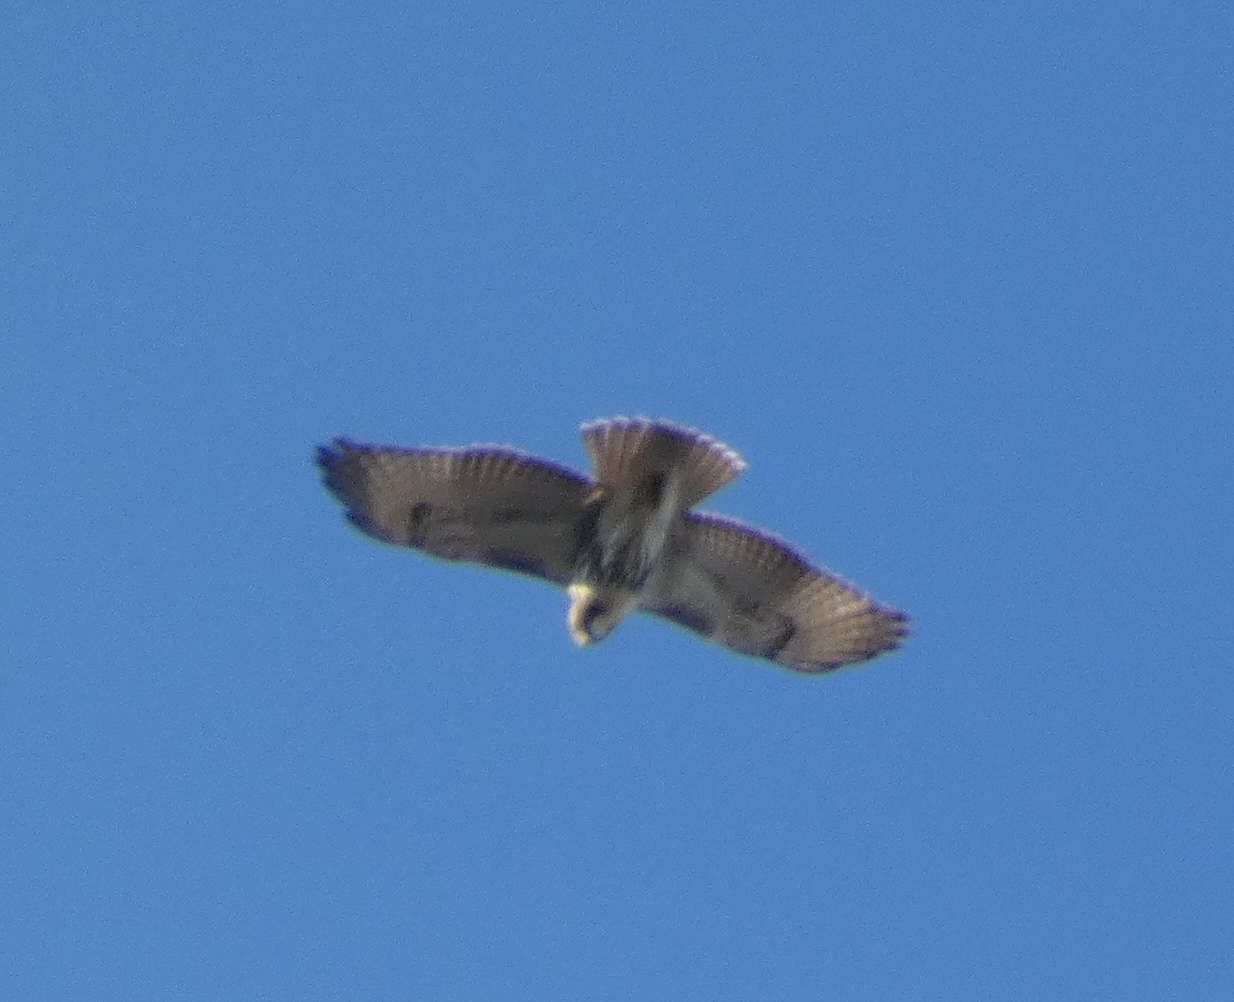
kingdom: Animalia
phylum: Chordata
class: Aves
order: Accipitriformes
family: Accipitridae
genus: Buteo
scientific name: Buteo jamaicensis
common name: Red-tailed hawk
